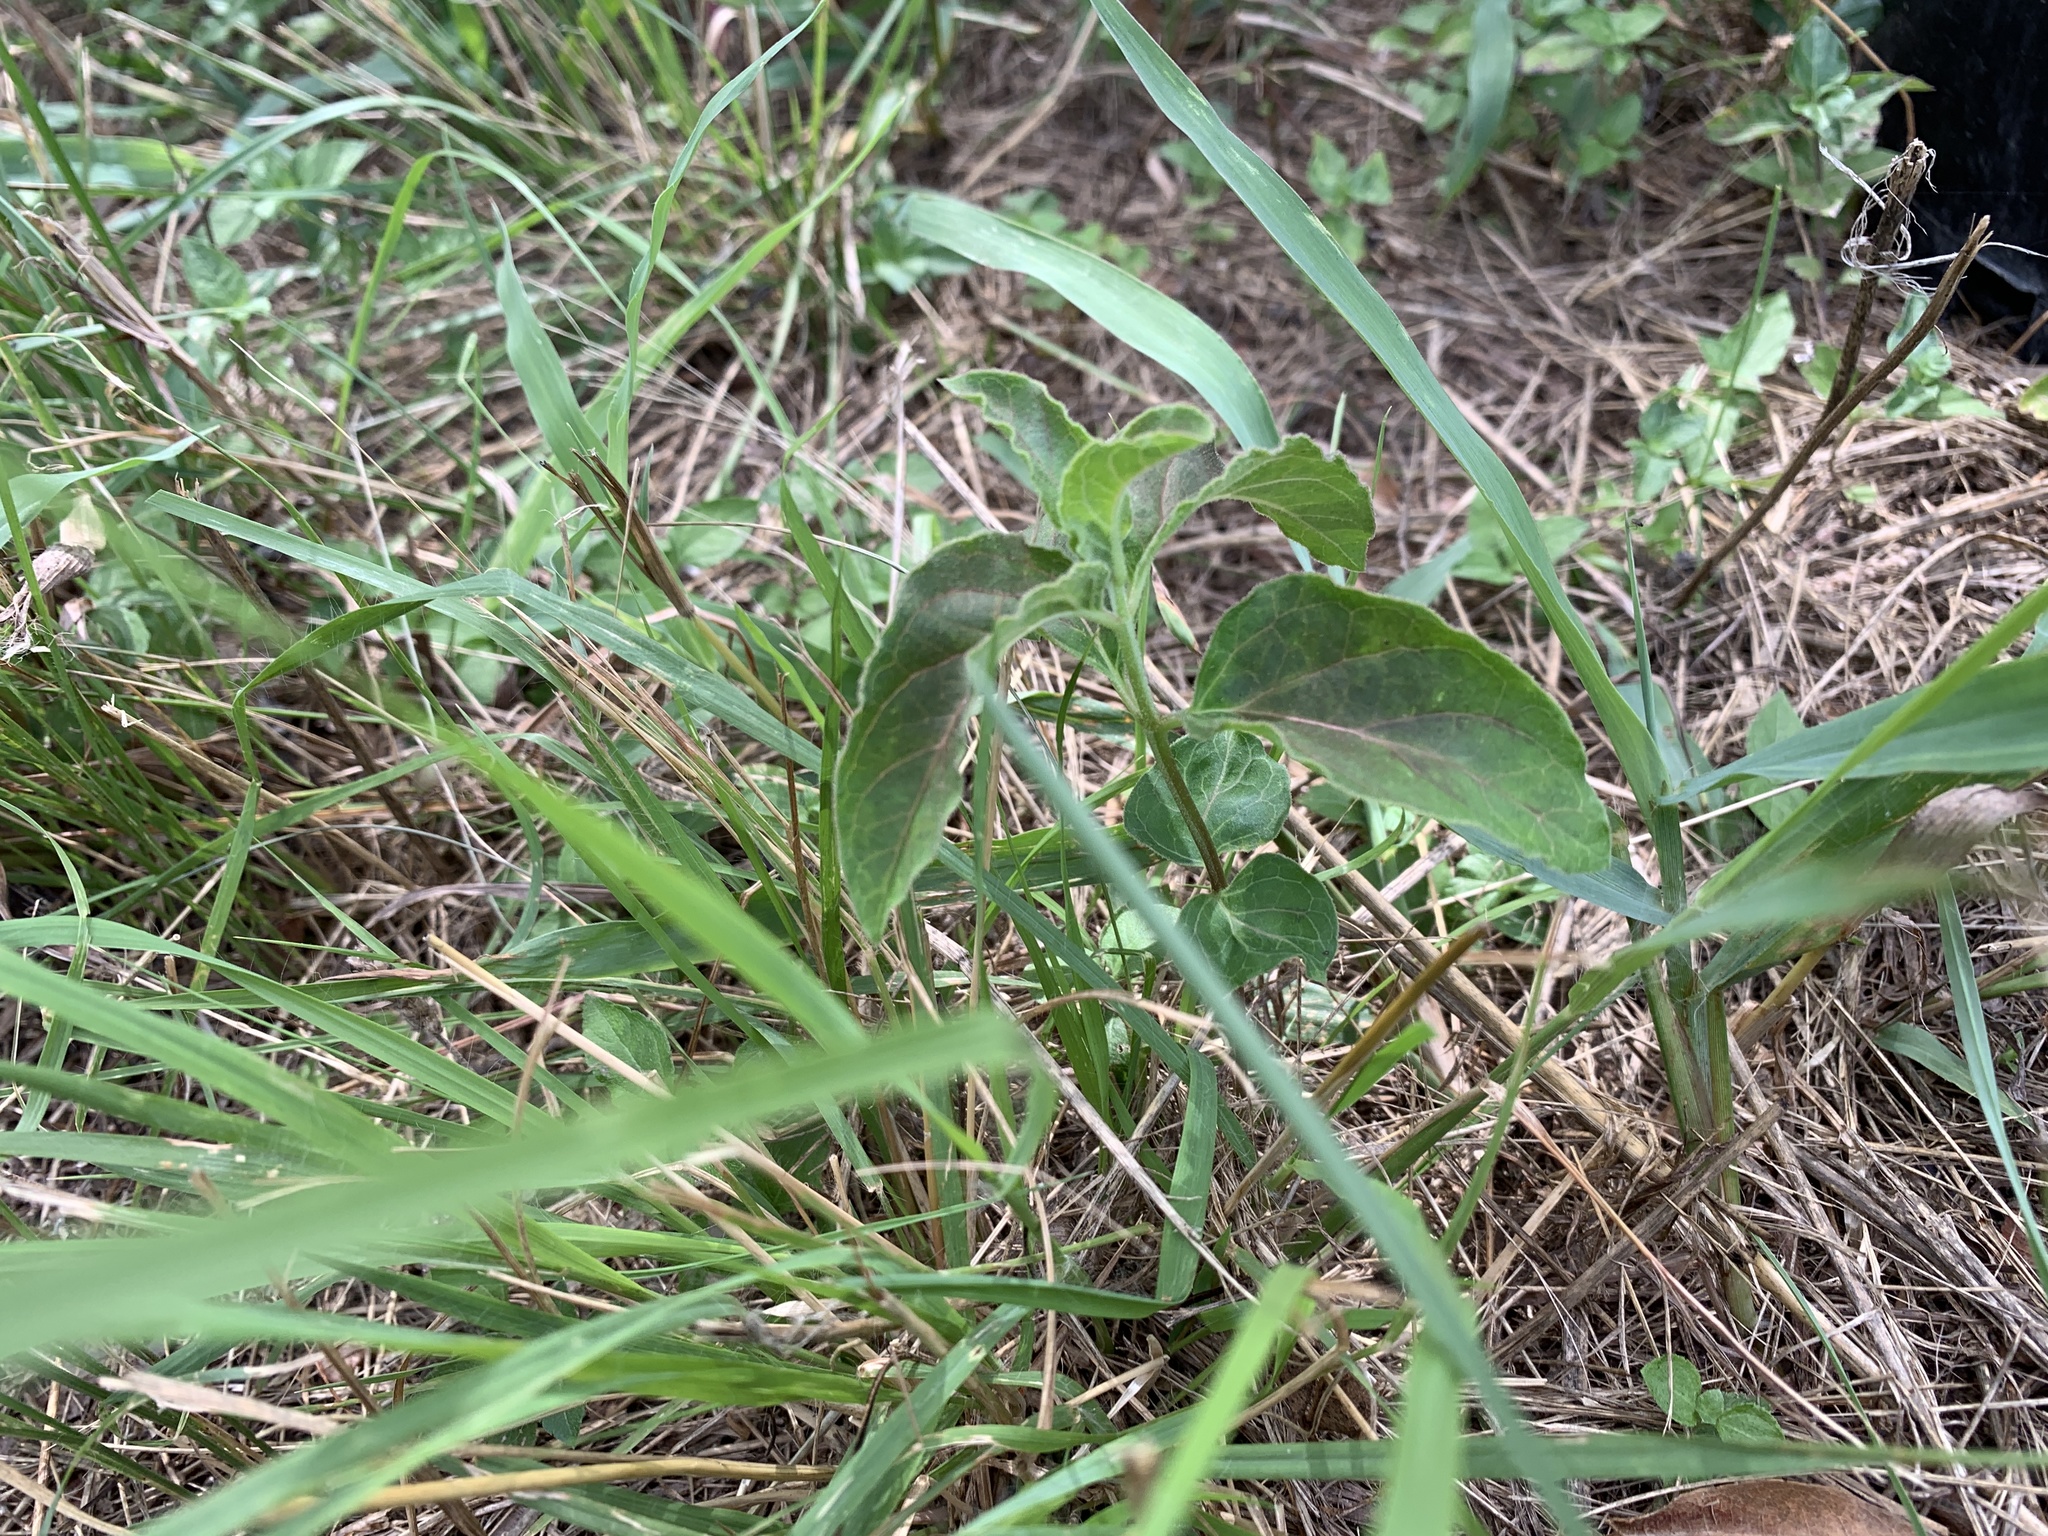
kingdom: Plantae
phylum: Tracheophyta
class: Magnoliopsida
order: Gentianales
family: Apocynaceae
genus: Asclepias
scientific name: Asclepias oenotheroides
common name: Zizotes milkweed
